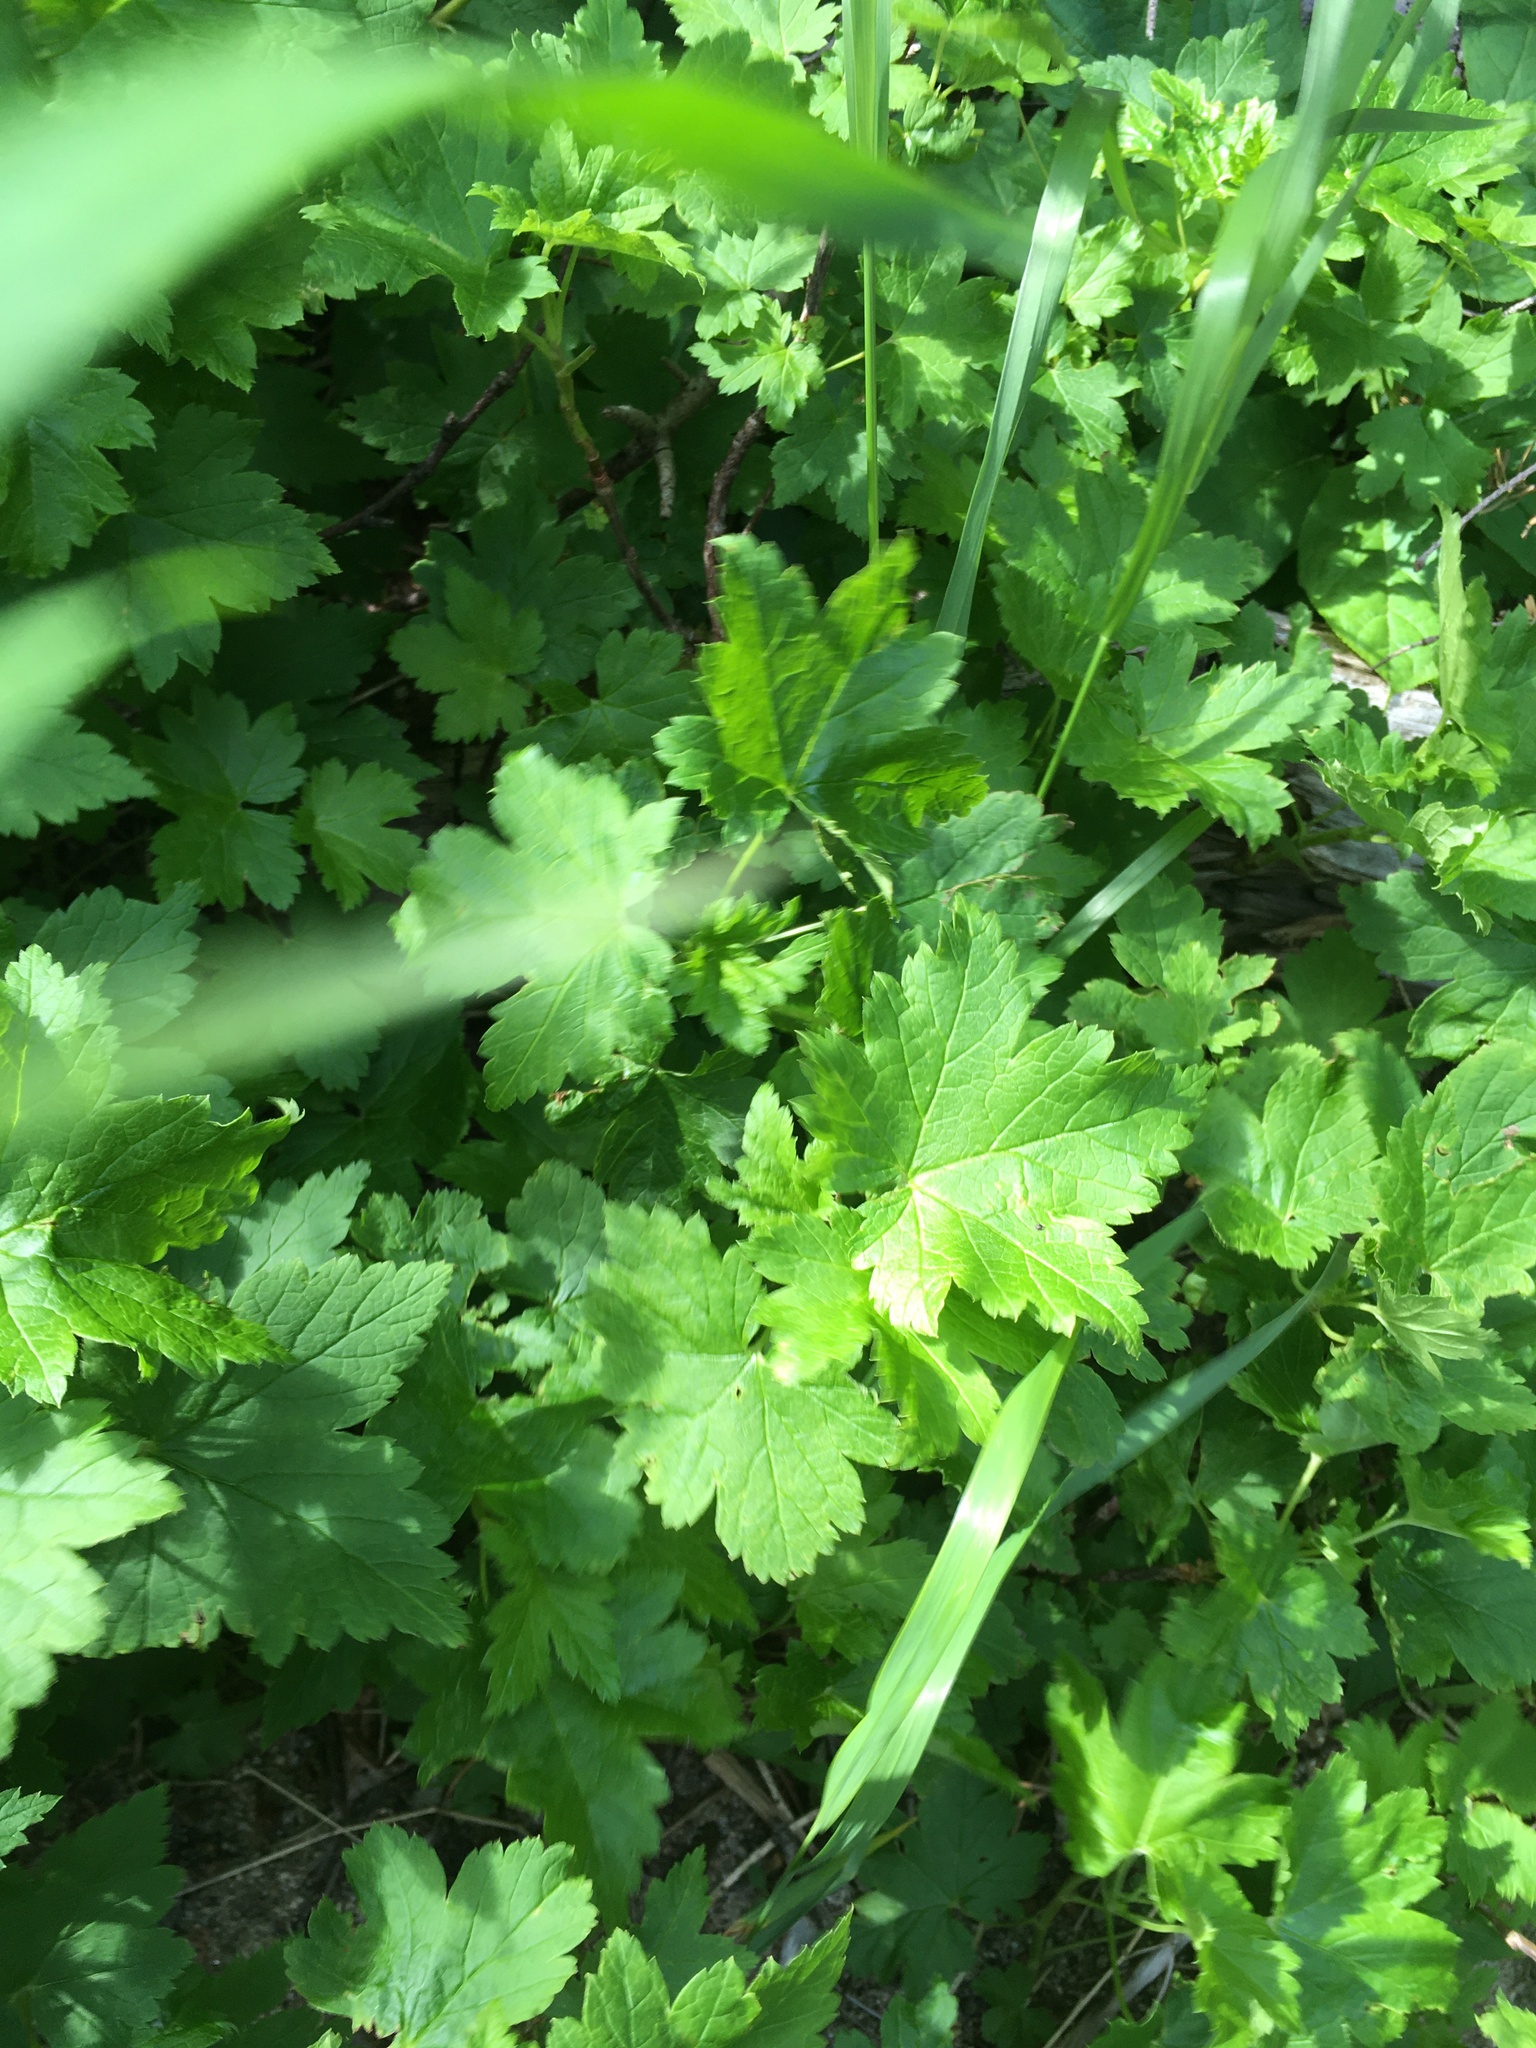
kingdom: Plantae
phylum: Tracheophyta
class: Magnoliopsida
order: Saxifragales
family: Grossulariaceae
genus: Ribes
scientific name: Ribes glandulosum
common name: Skunk currant
